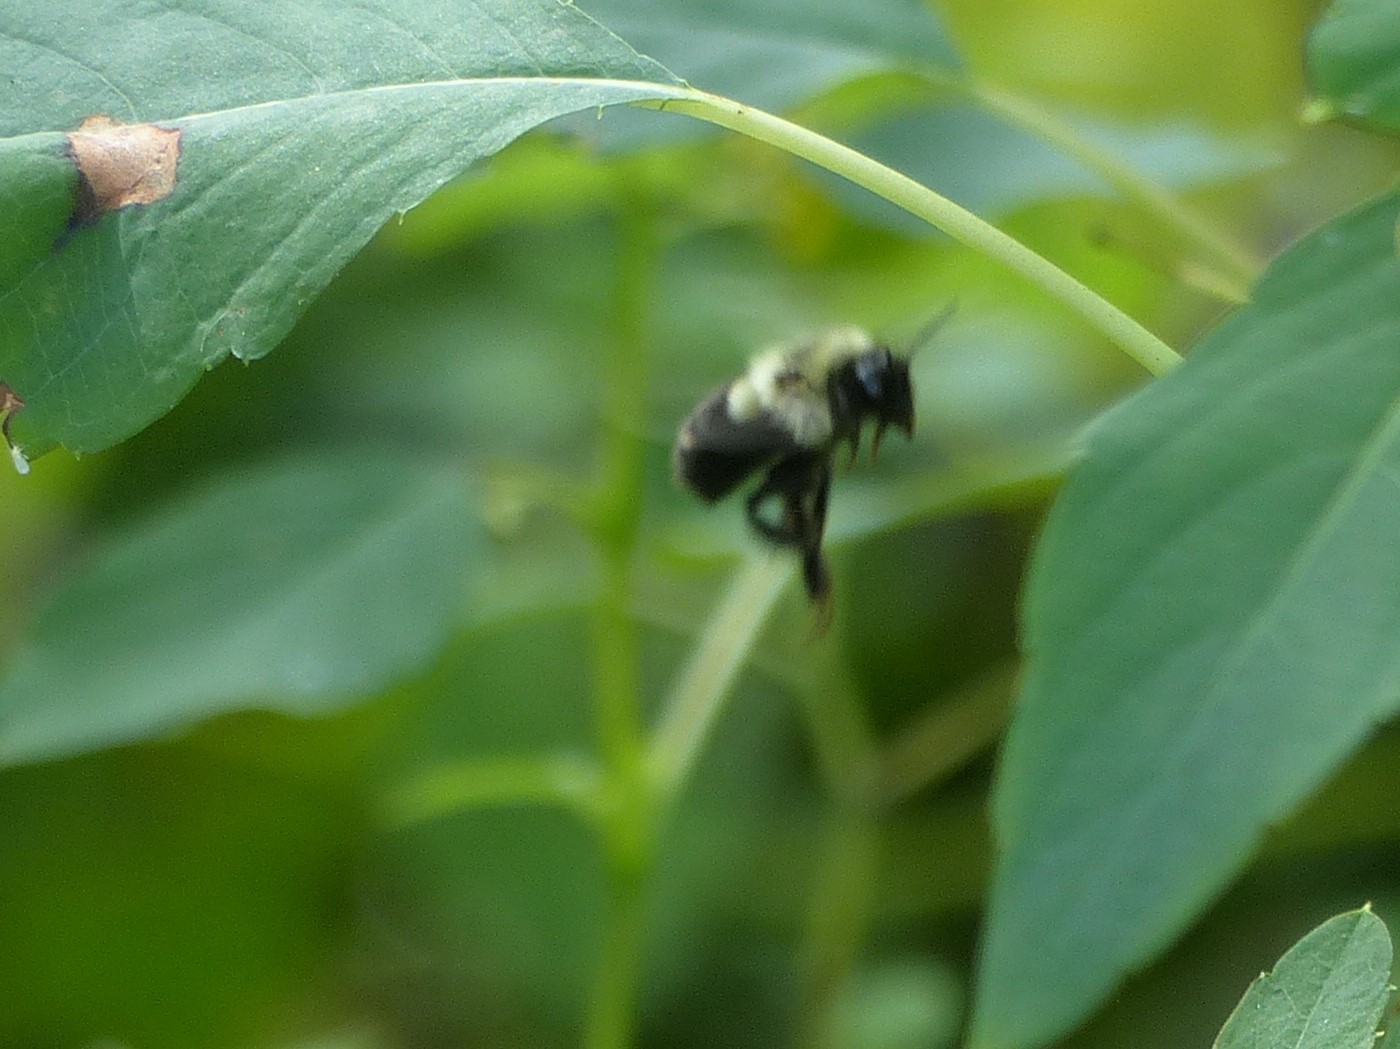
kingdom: Animalia
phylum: Arthropoda
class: Insecta
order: Hymenoptera
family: Apidae
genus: Bombus
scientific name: Bombus impatiens
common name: Common eastern bumble bee
